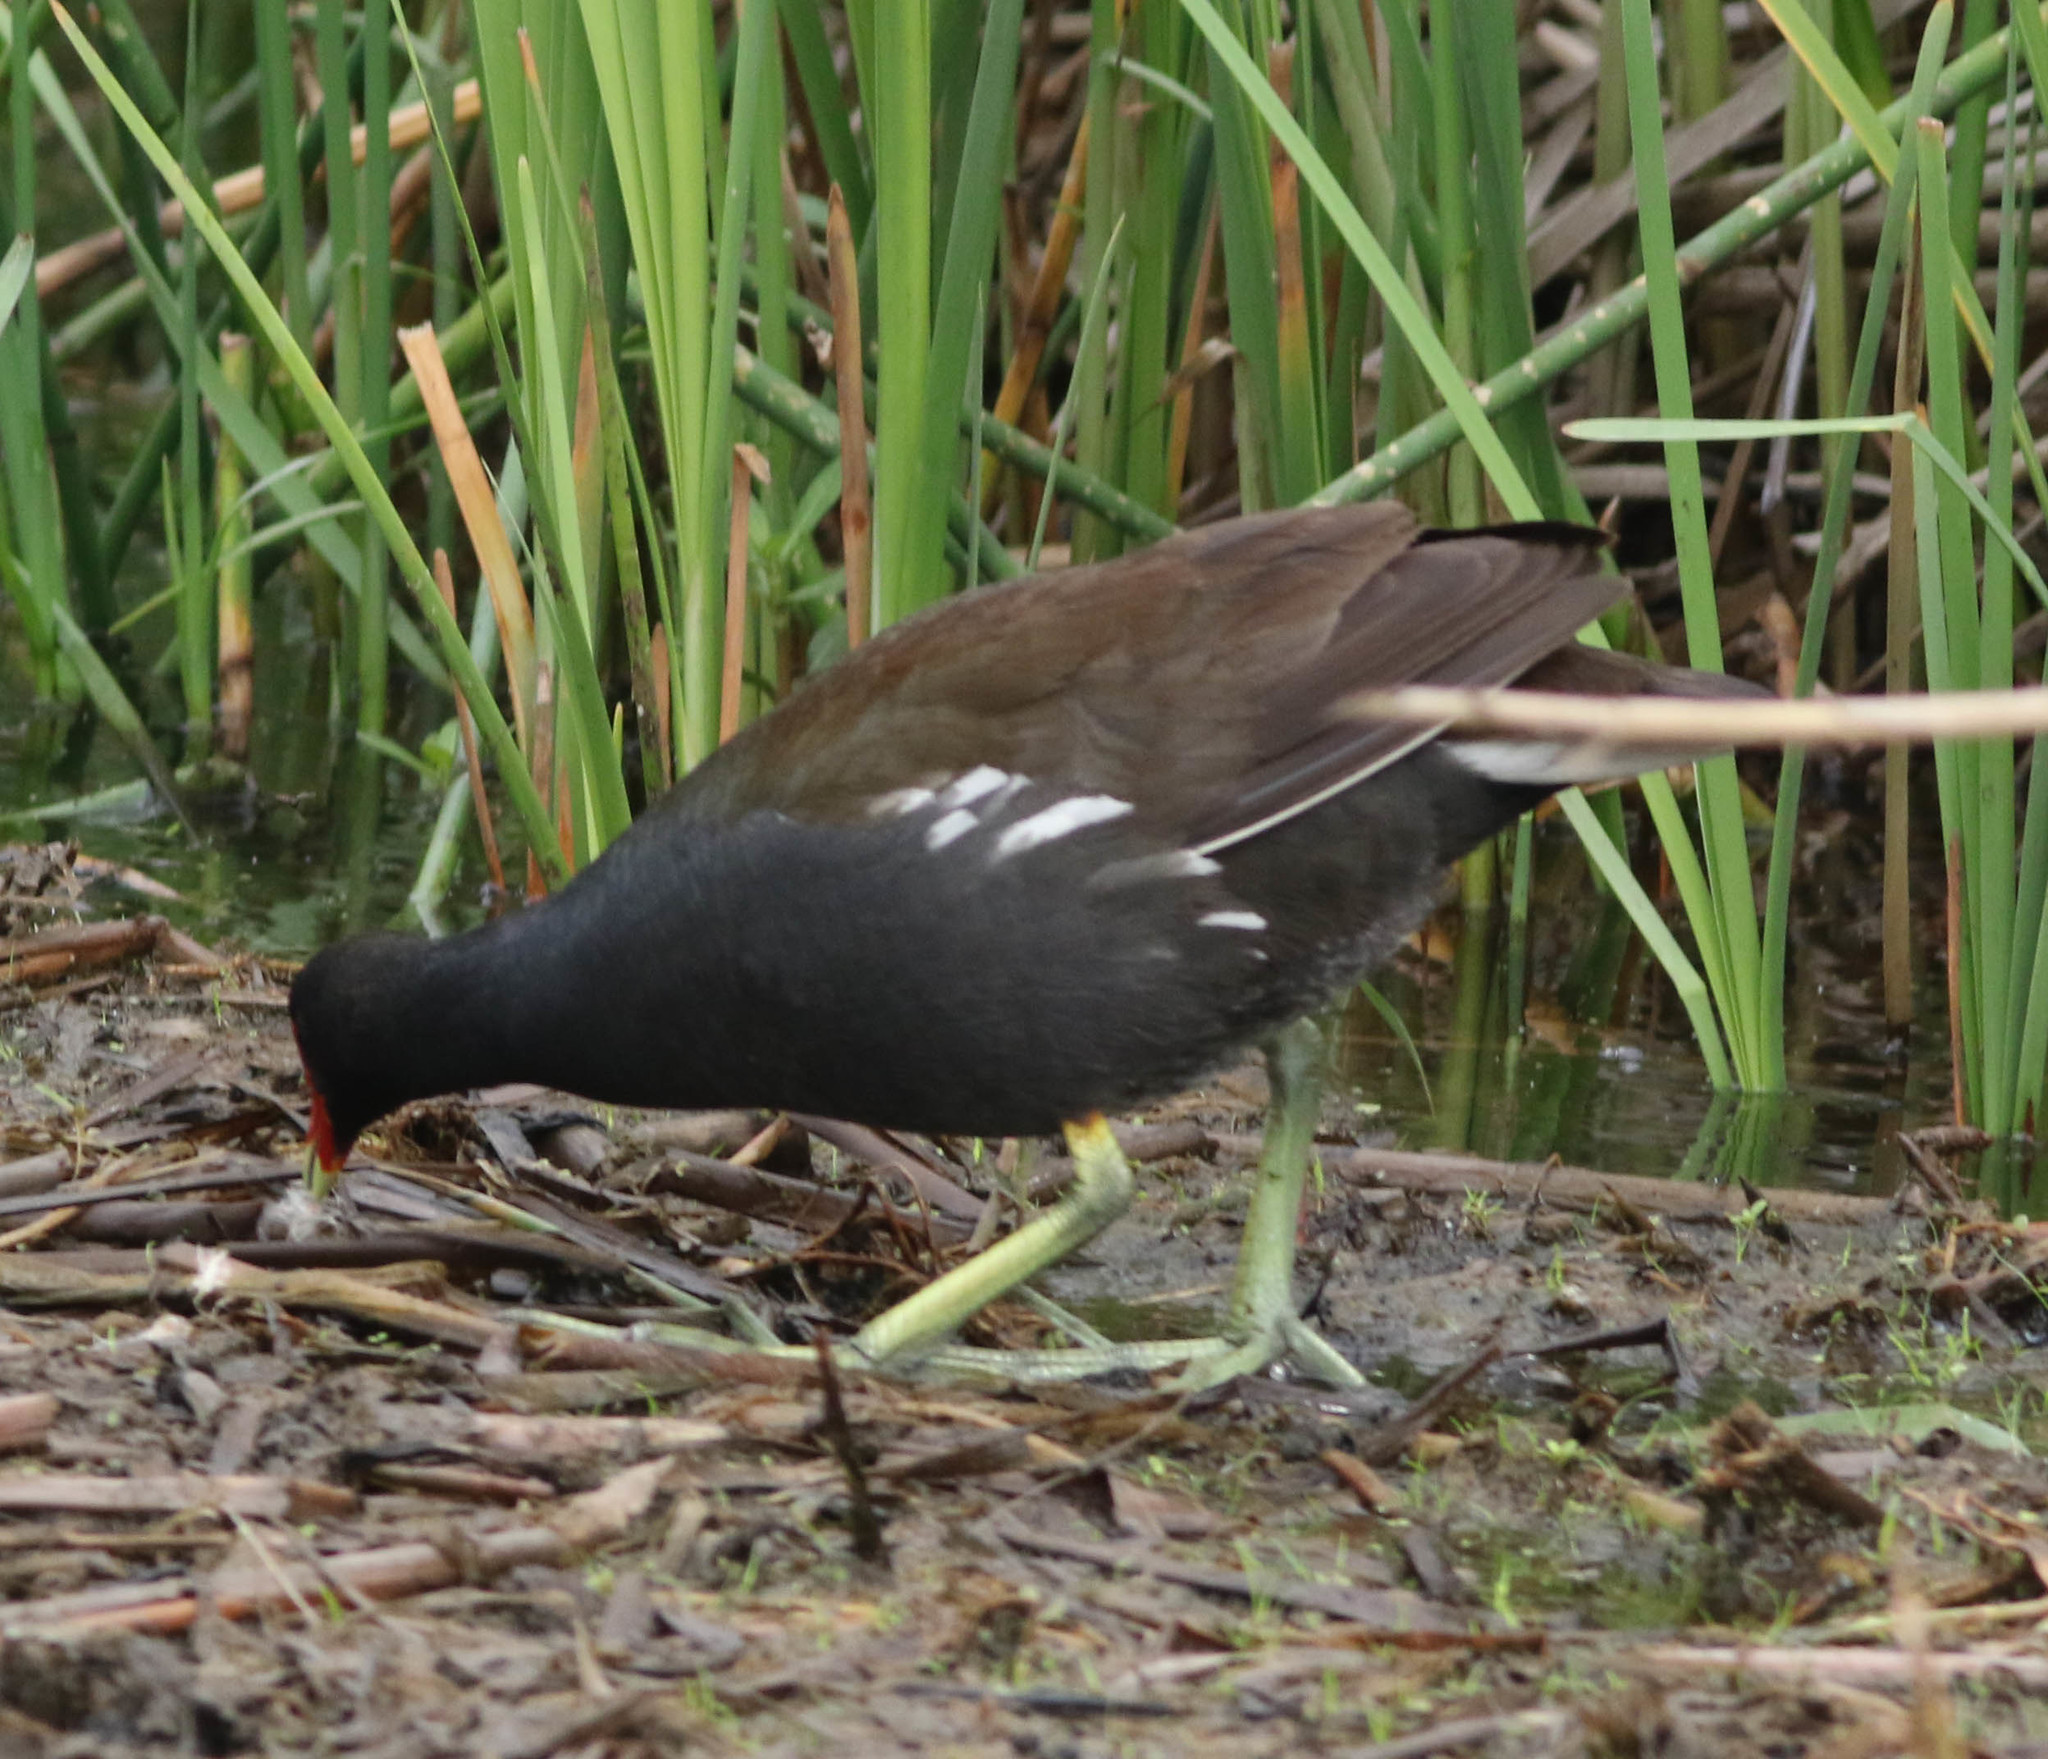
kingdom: Animalia
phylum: Chordata
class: Aves
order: Gruiformes
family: Rallidae
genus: Gallinula
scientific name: Gallinula chloropus
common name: Common moorhen
